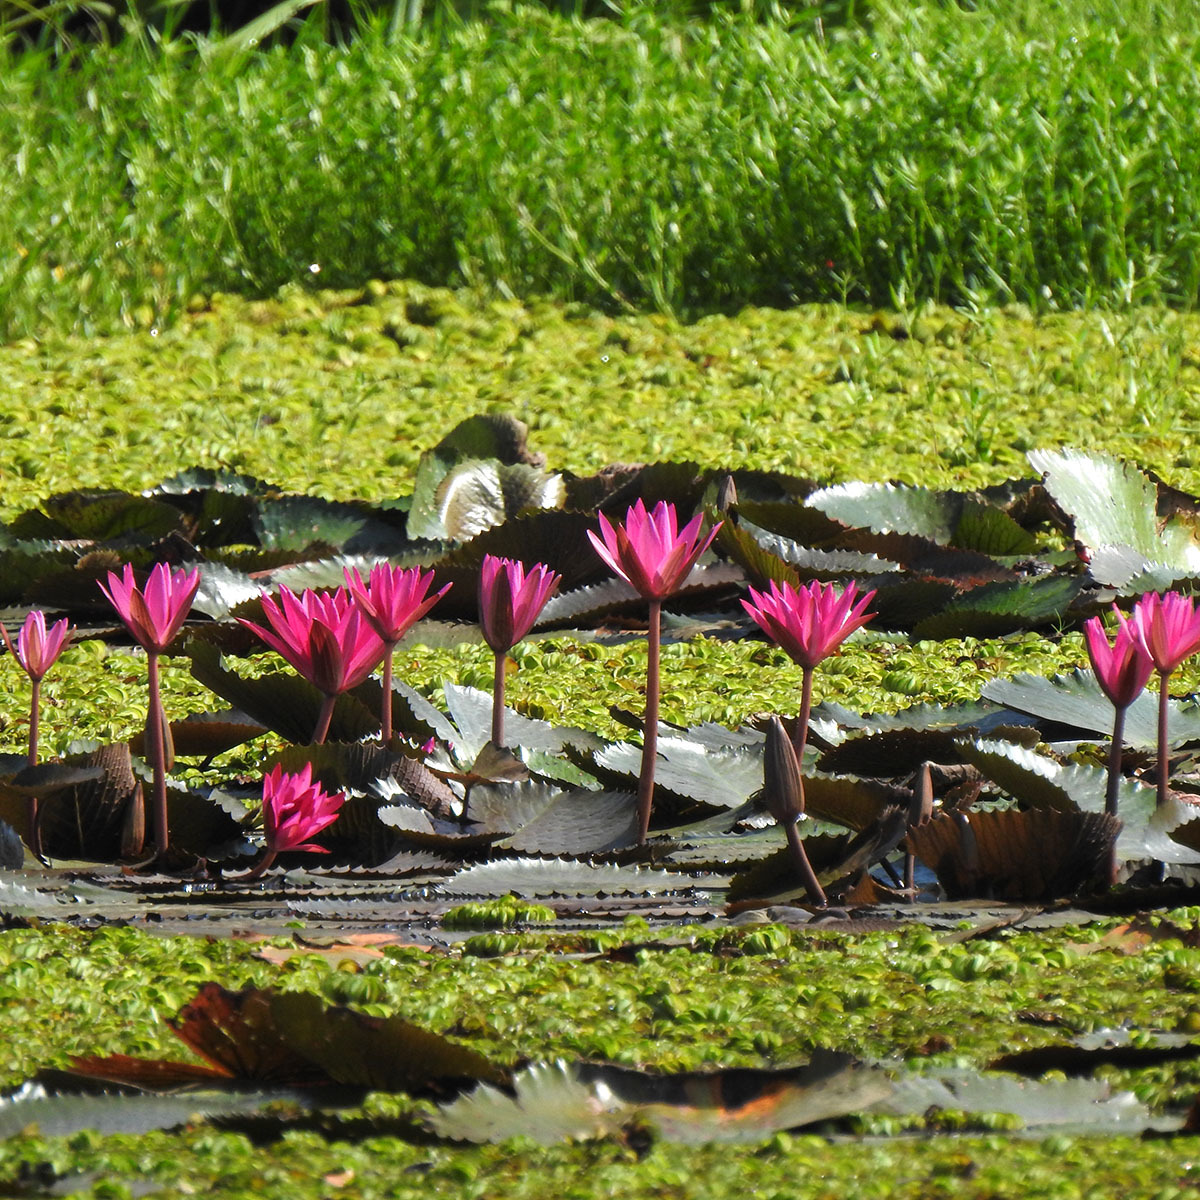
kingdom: Plantae
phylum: Tracheophyta
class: Magnoliopsida
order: Nymphaeales
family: Nymphaeaceae
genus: Nymphaea
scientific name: Nymphaea rubra
